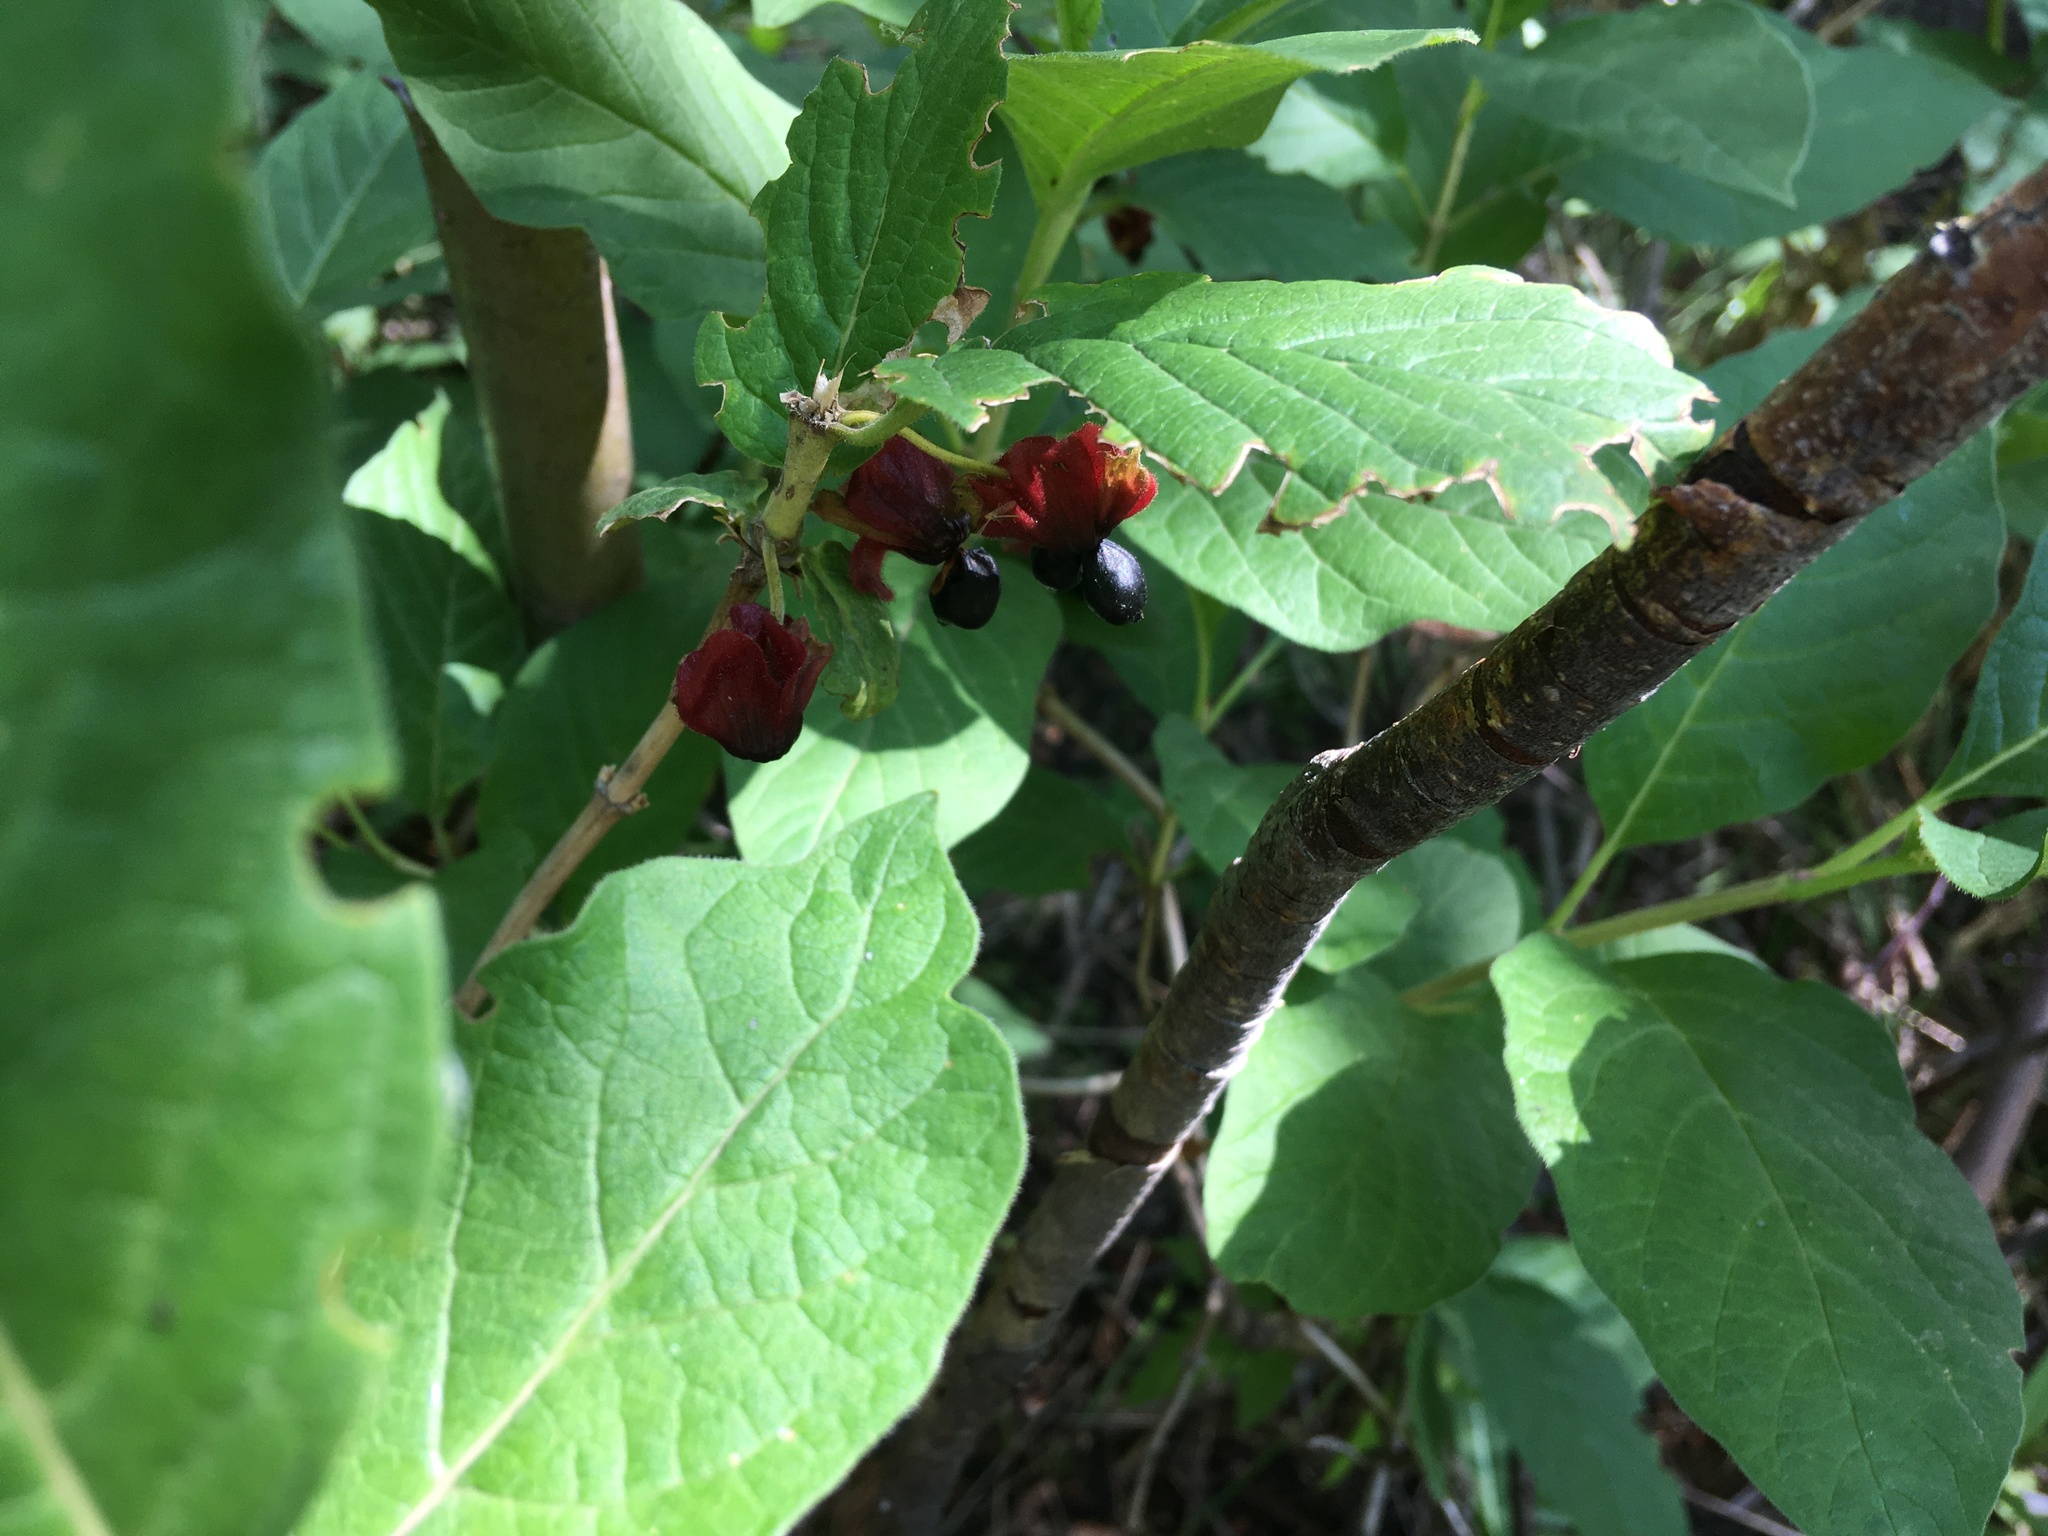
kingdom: Plantae
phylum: Tracheophyta
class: Magnoliopsida
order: Dipsacales
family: Caprifoliaceae
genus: Lonicera
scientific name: Lonicera involucrata
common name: Californian honeysuckle
